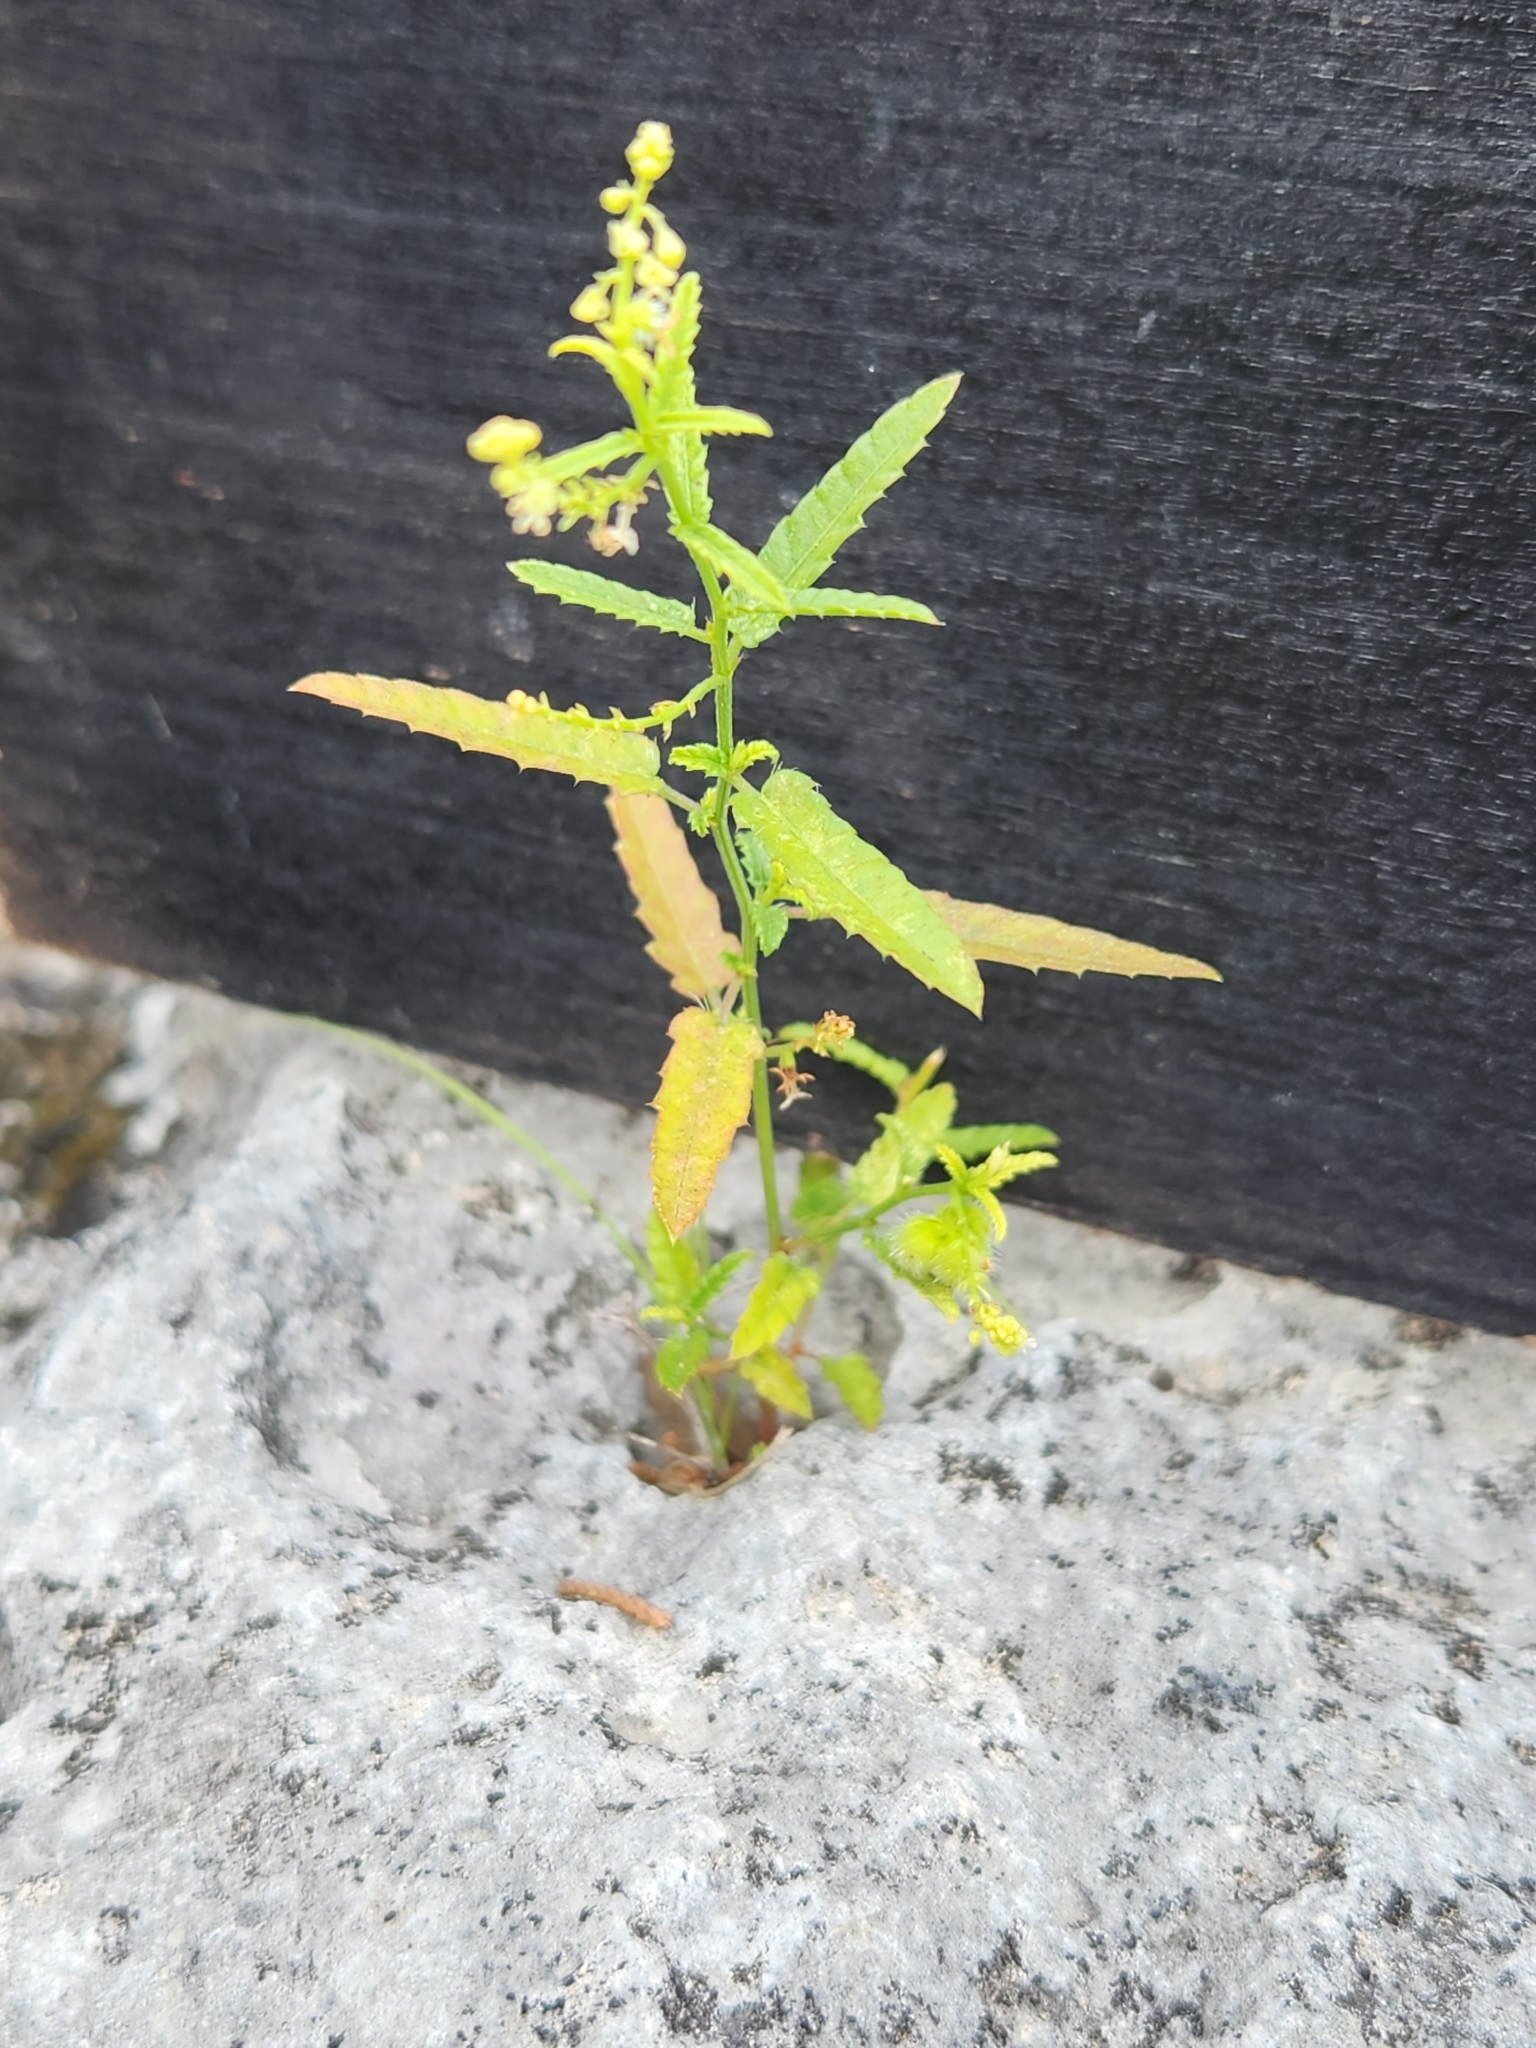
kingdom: Plantae
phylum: Tracheophyta
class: Magnoliopsida
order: Malpighiales
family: Euphorbiaceae
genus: Tragia
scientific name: Tragia ramosa
